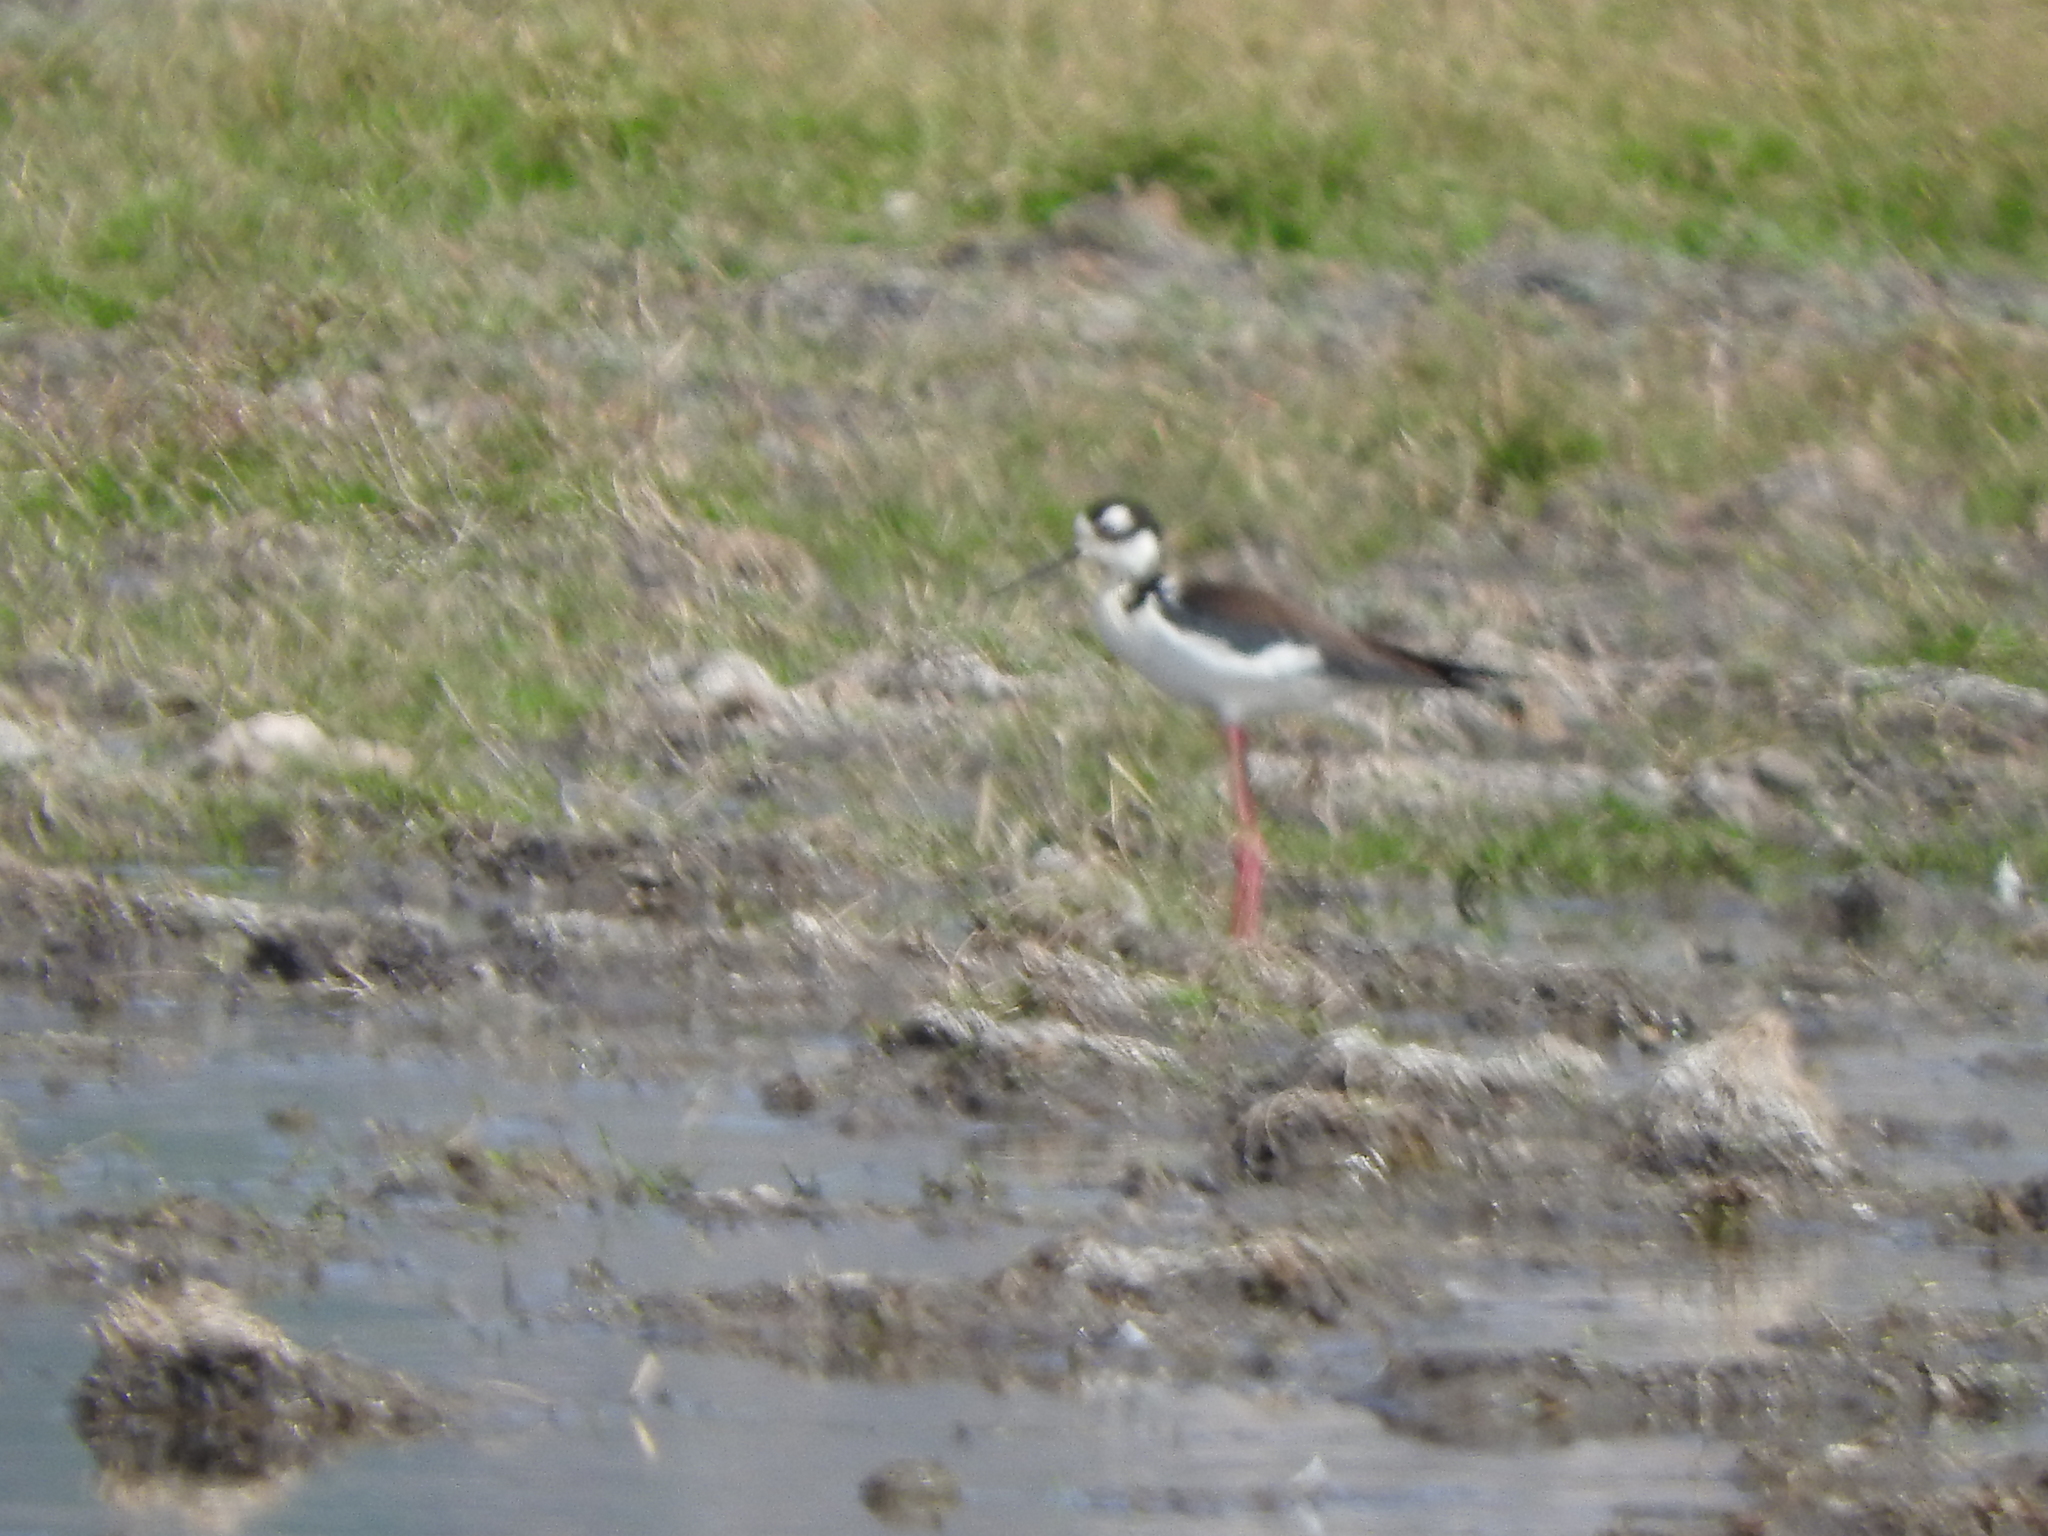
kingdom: Animalia
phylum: Chordata
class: Aves
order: Charadriiformes
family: Recurvirostridae
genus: Himantopus
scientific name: Himantopus mexicanus
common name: Black-necked stilt
